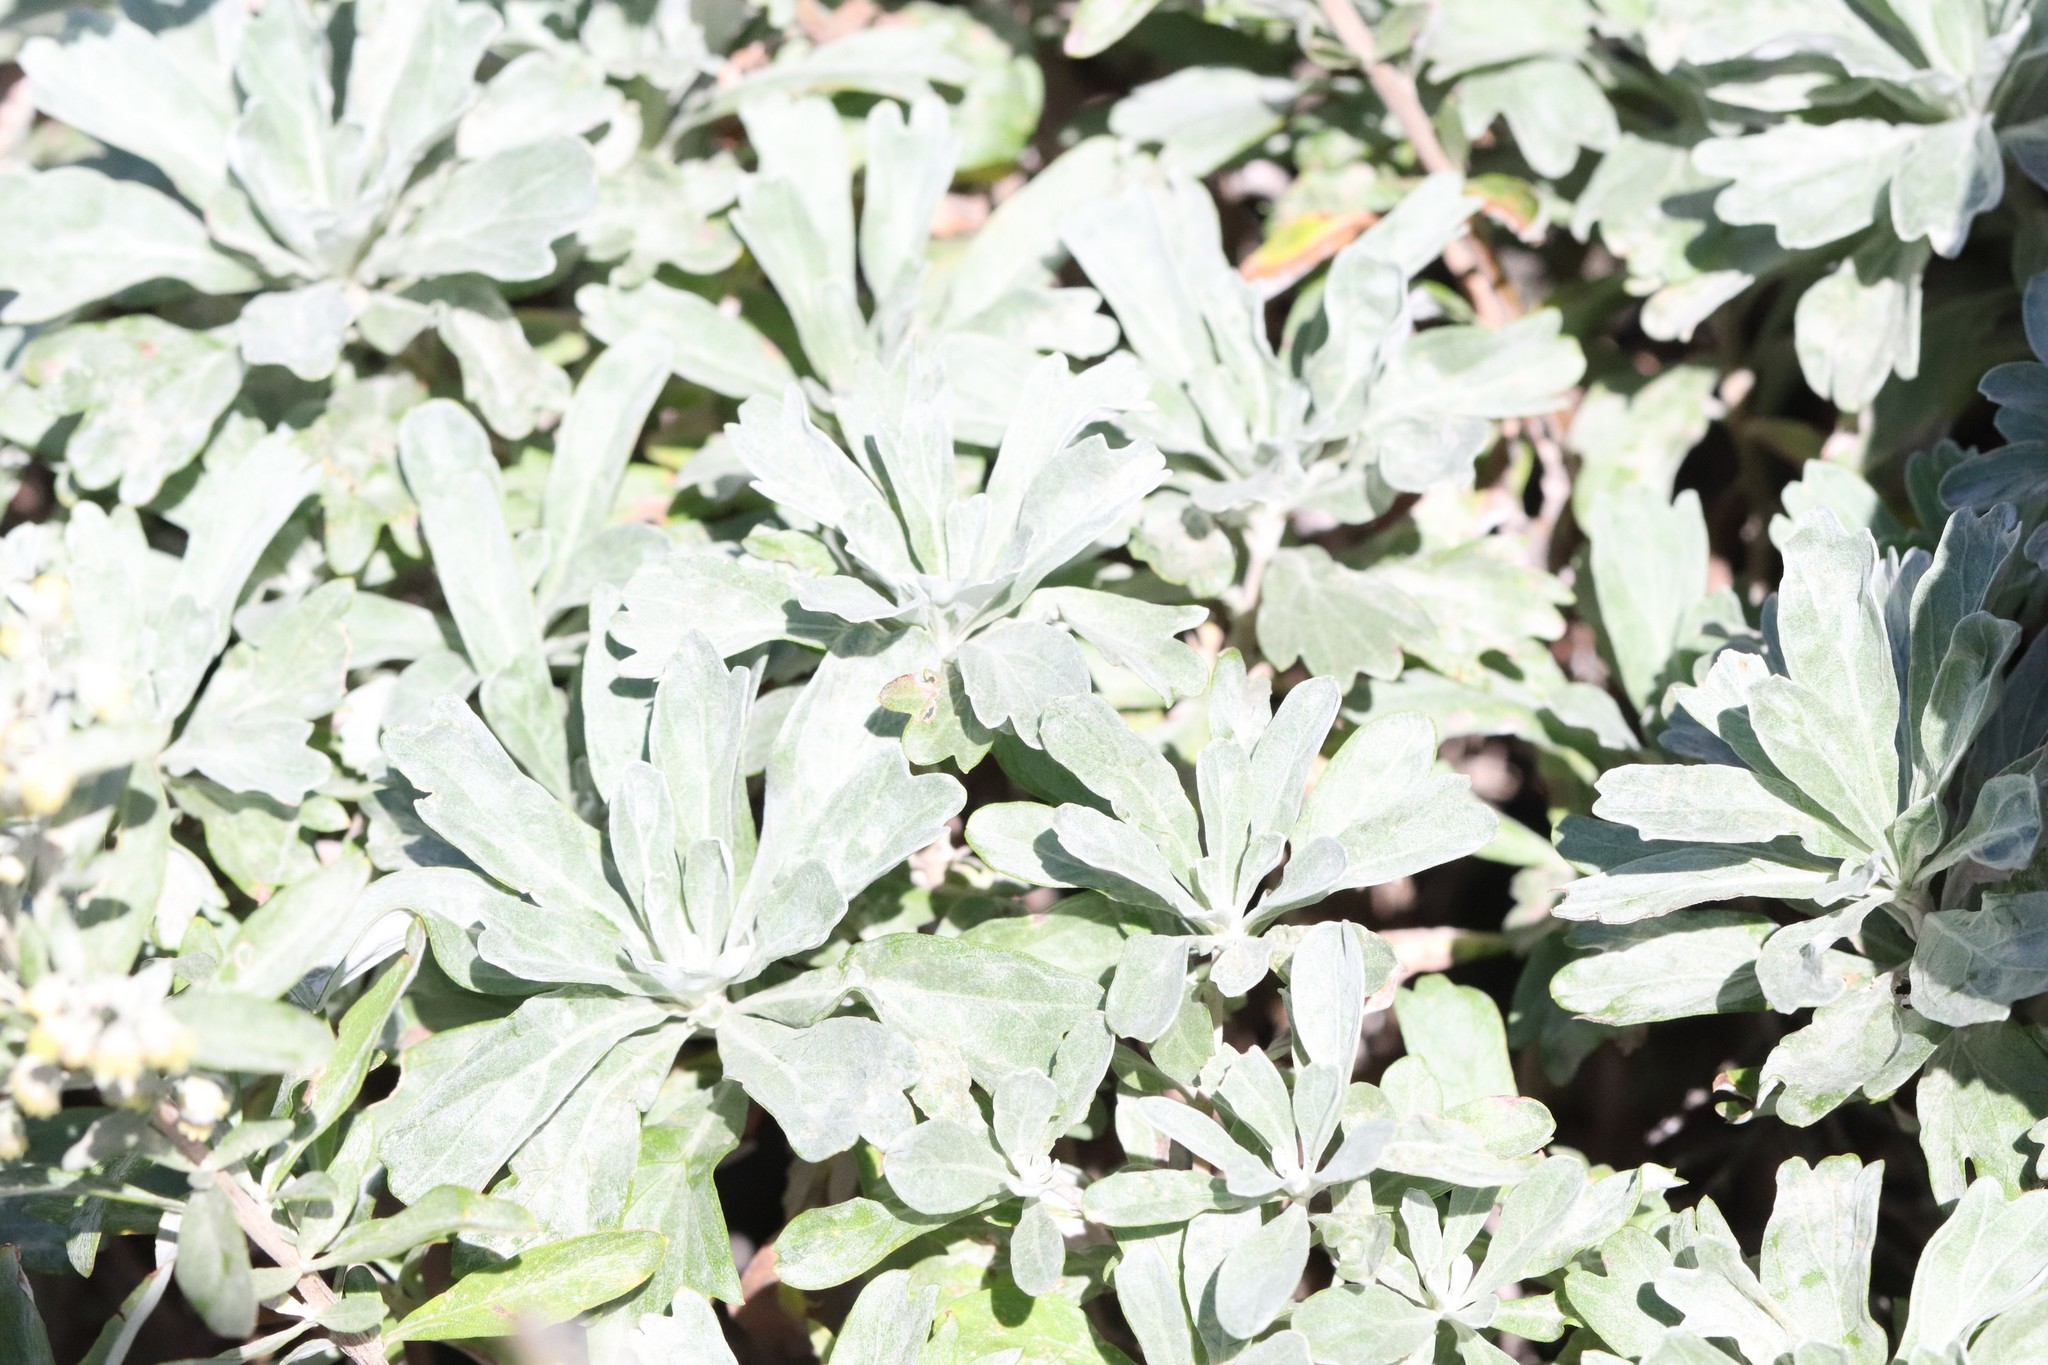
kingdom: Plantae
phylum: Tracheophyta
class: Magnoliopsida
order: Asterales
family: Asteraceae
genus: Artemisia
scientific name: Artemisia lagocephala
